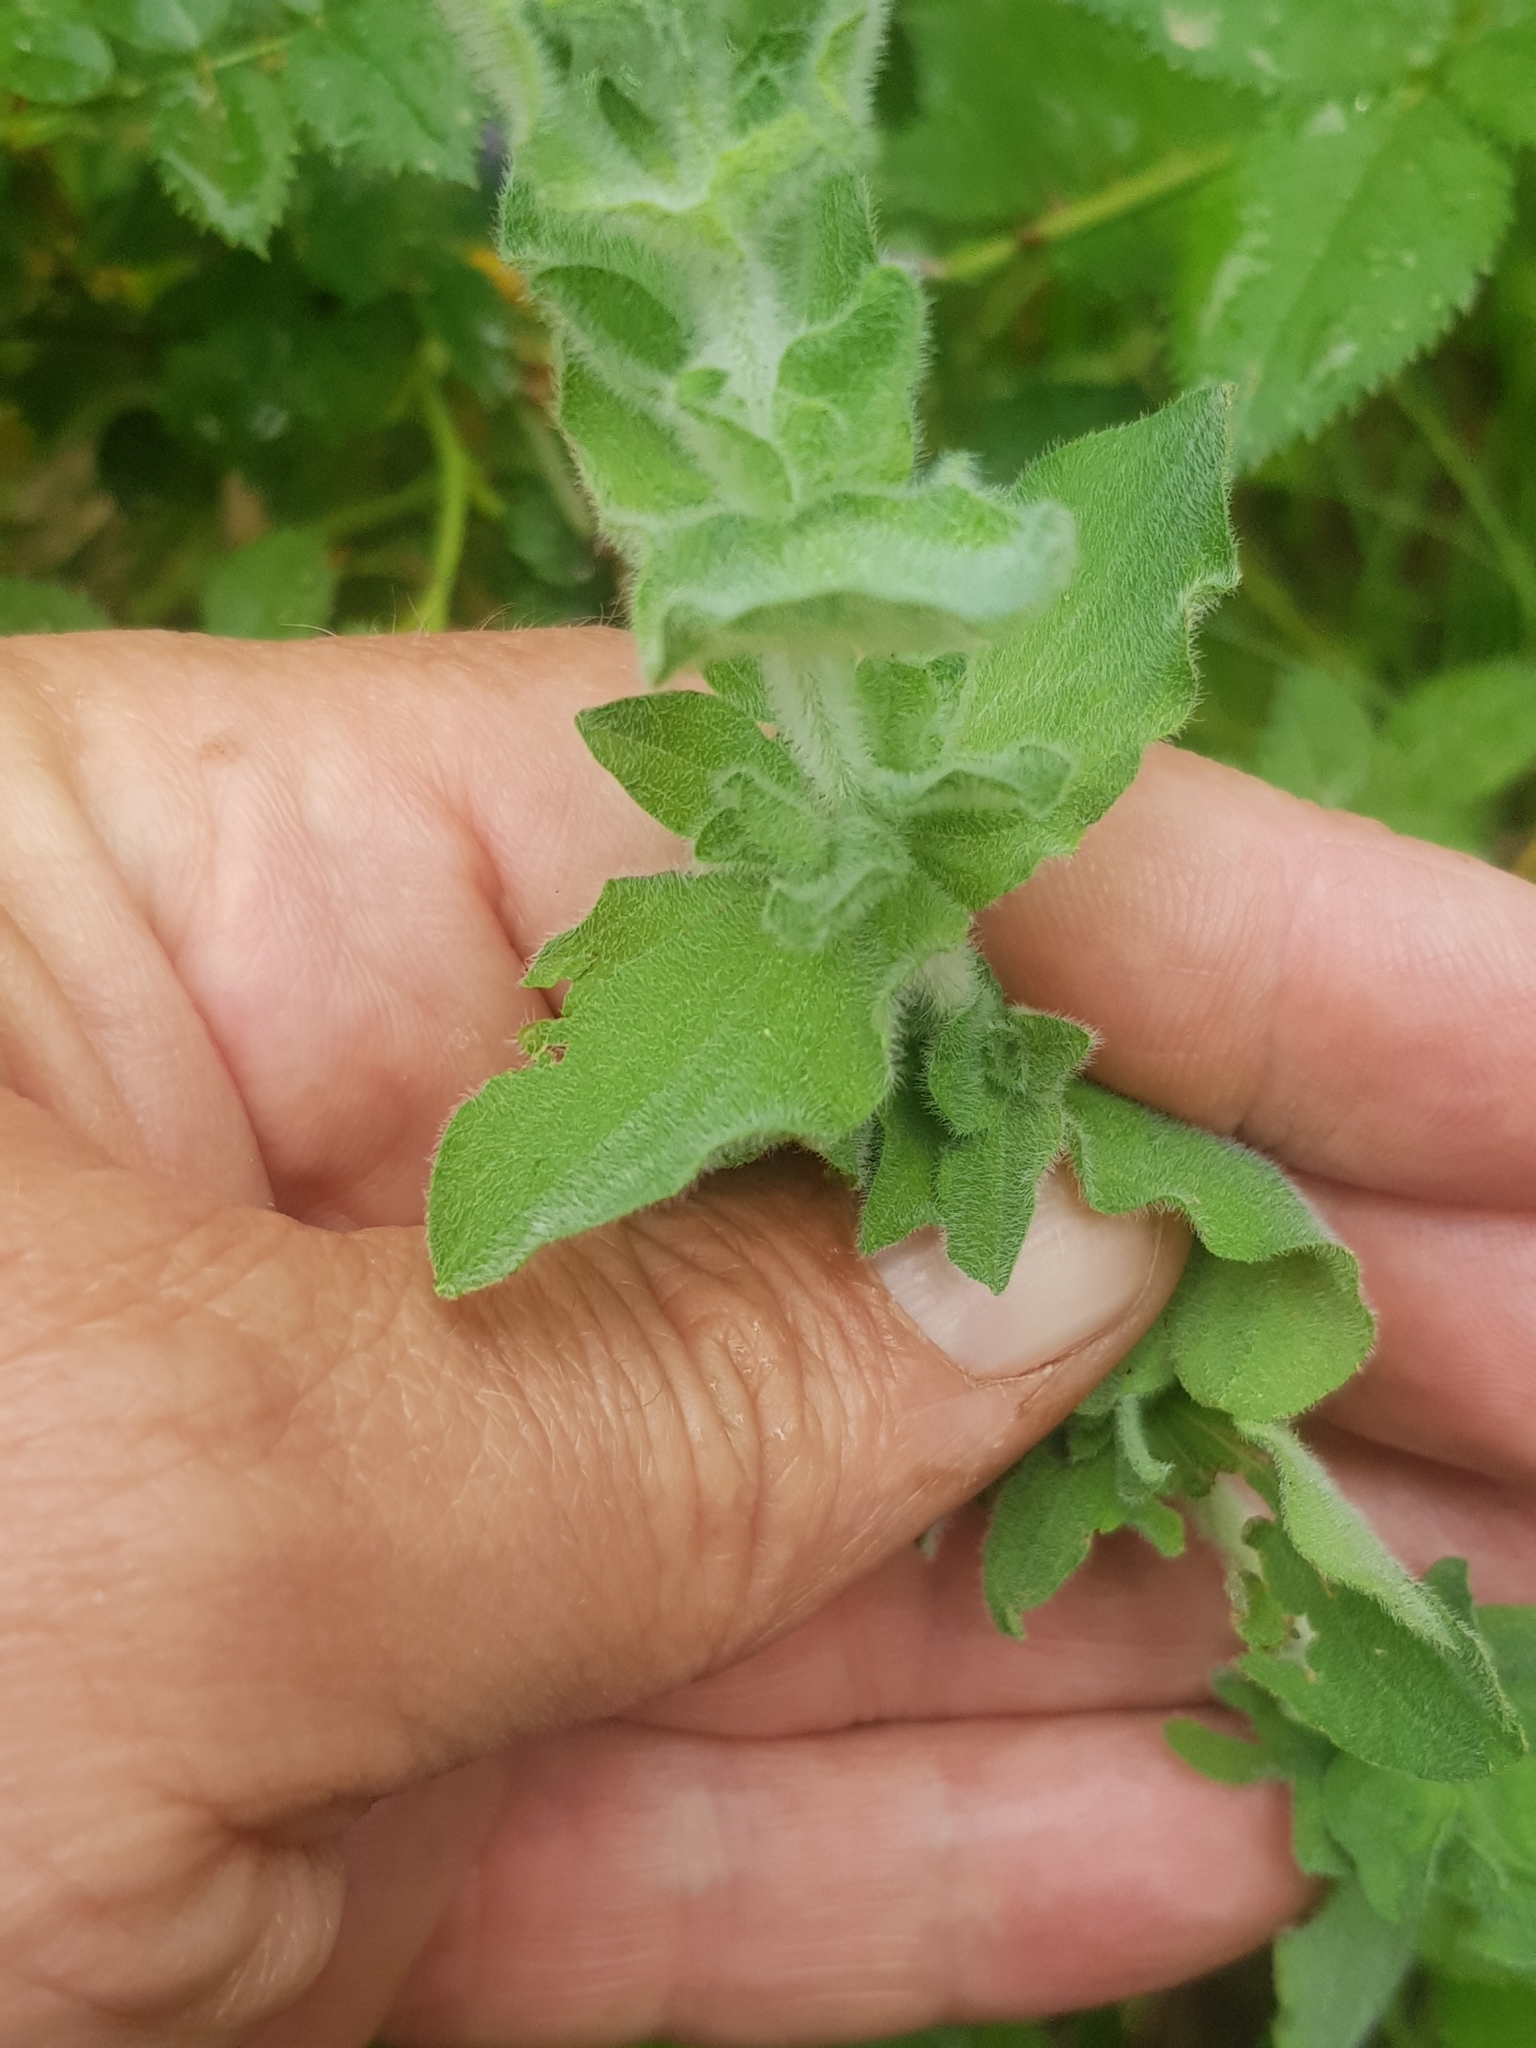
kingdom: Plantae
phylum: Tracheophyta
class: Magnoliopsida
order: Malpighiales
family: Hypericaceae
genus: Hypericum
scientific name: Hypericum pubescens
